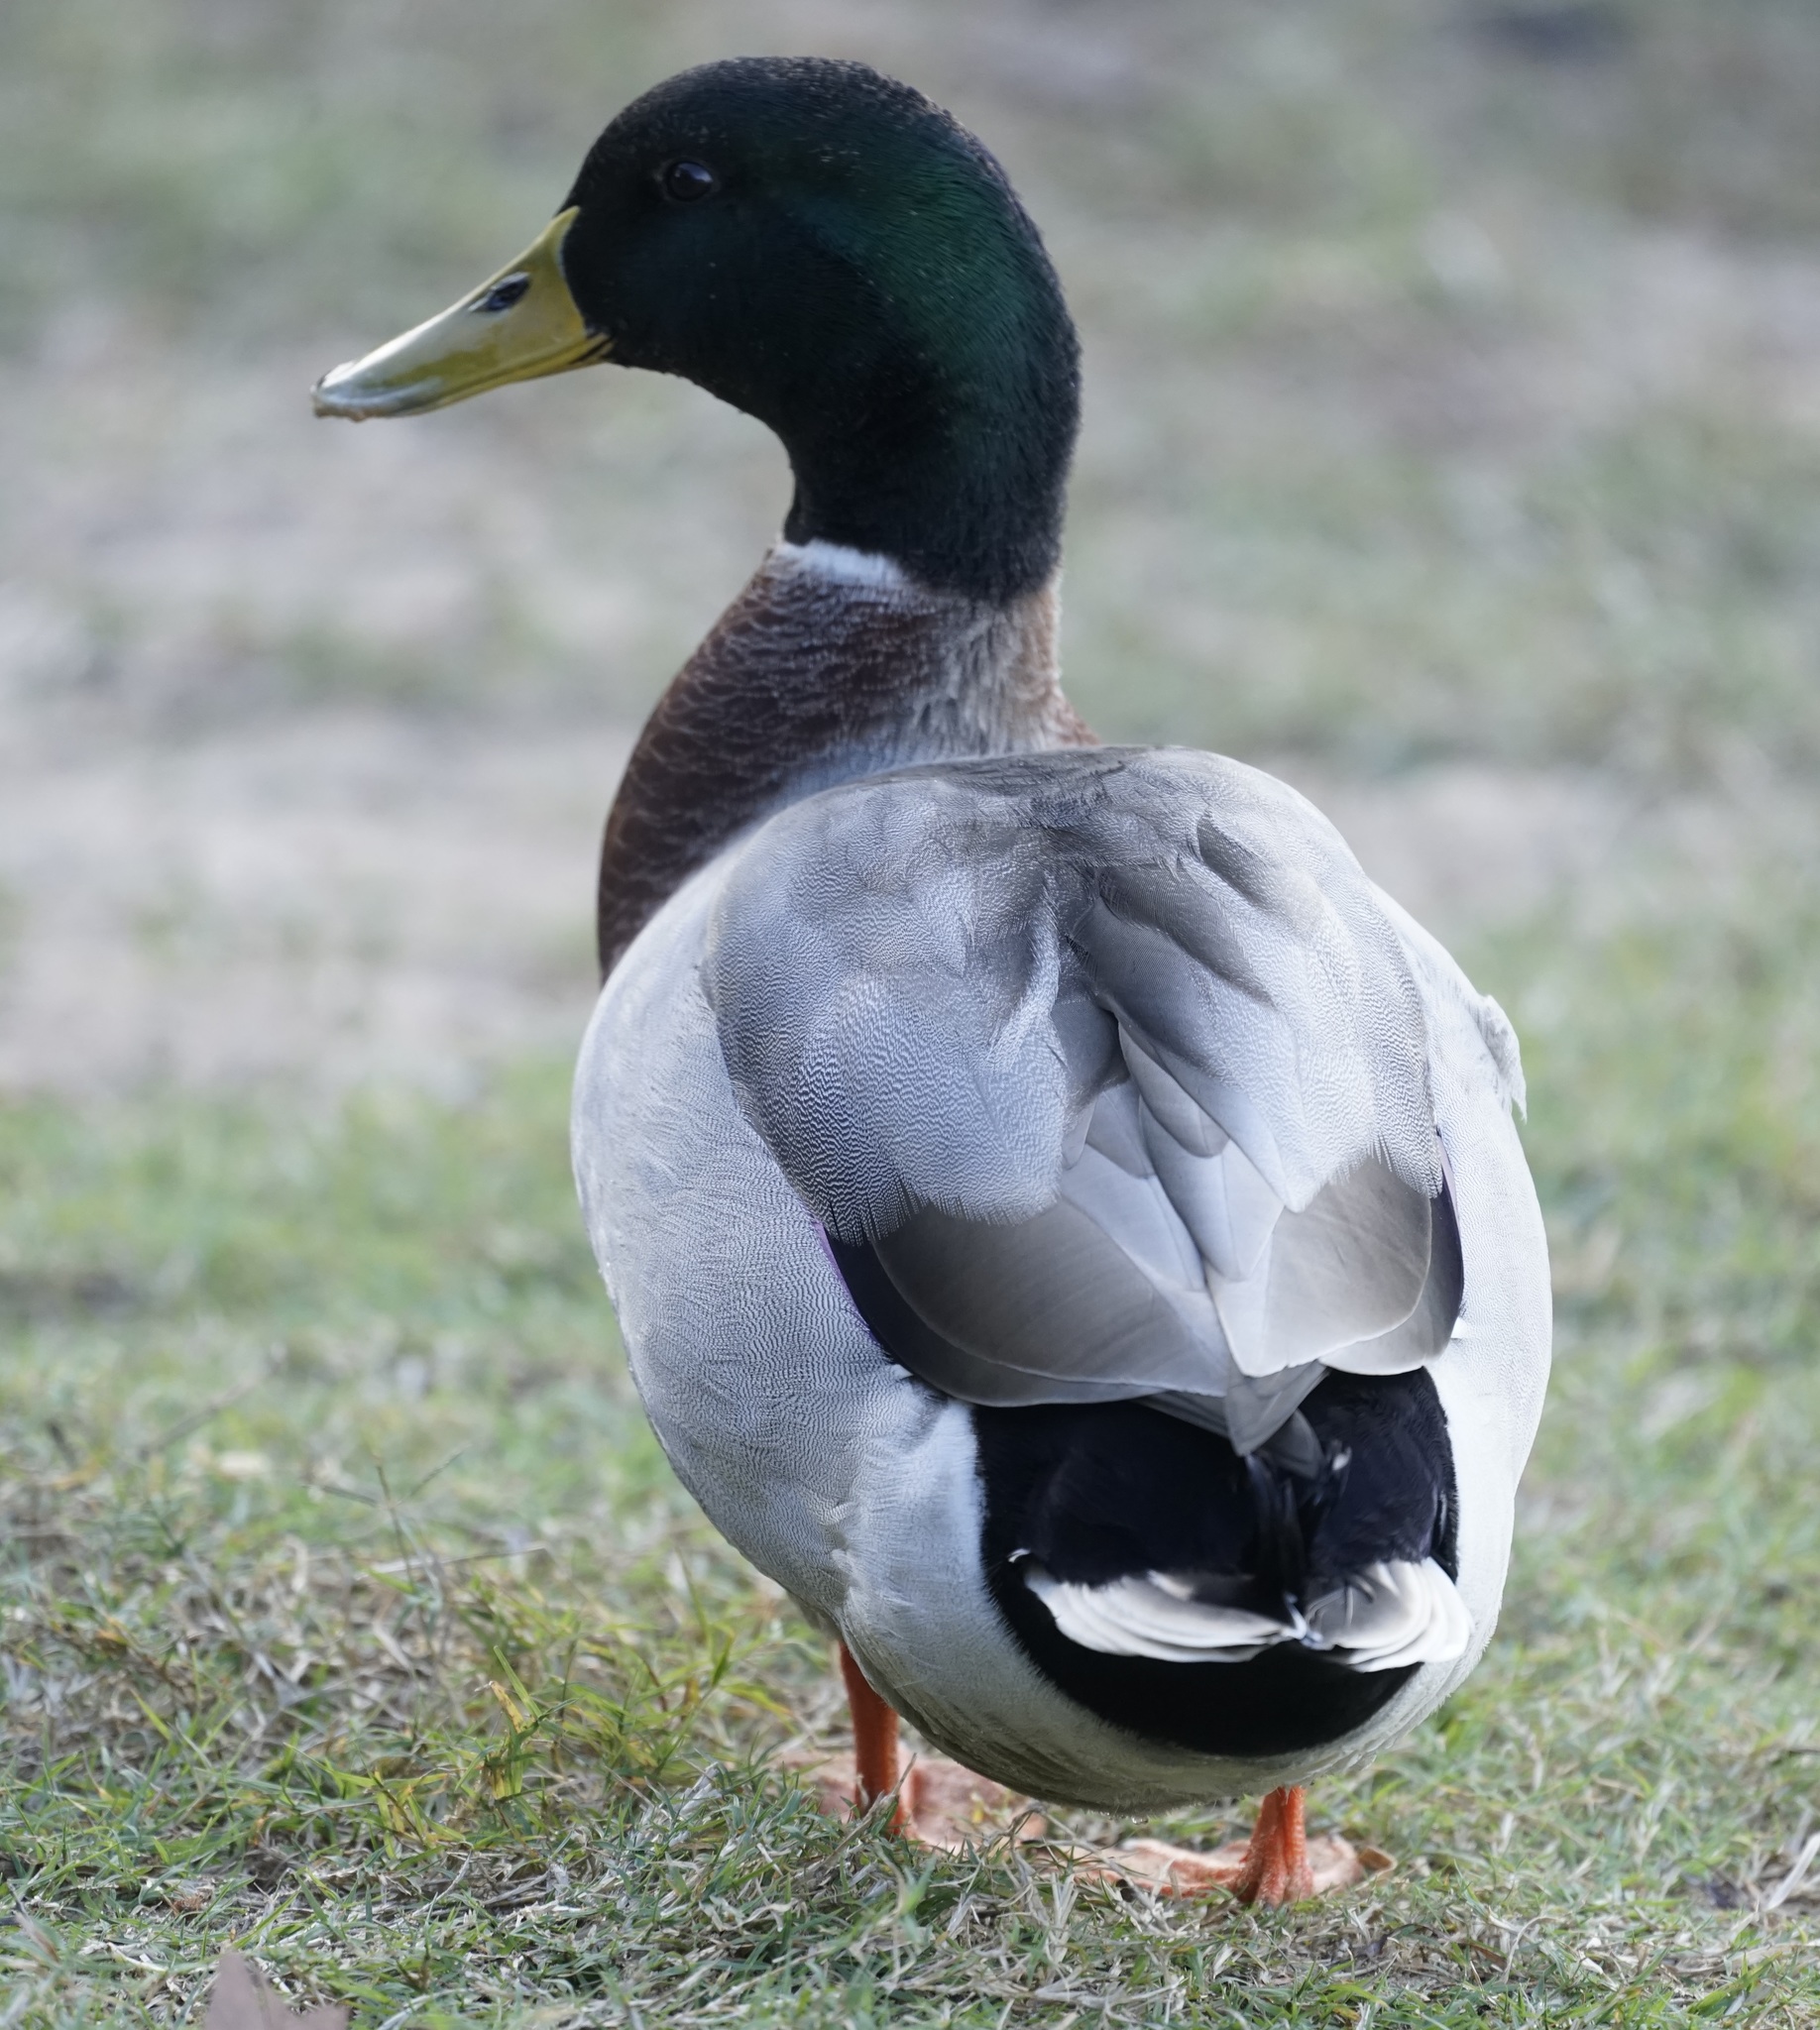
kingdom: Animalia
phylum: Chordata
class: Aves
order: Anseriformes
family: Anatidae
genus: Anas
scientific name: Anas platyrhynchos
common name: Mallard
